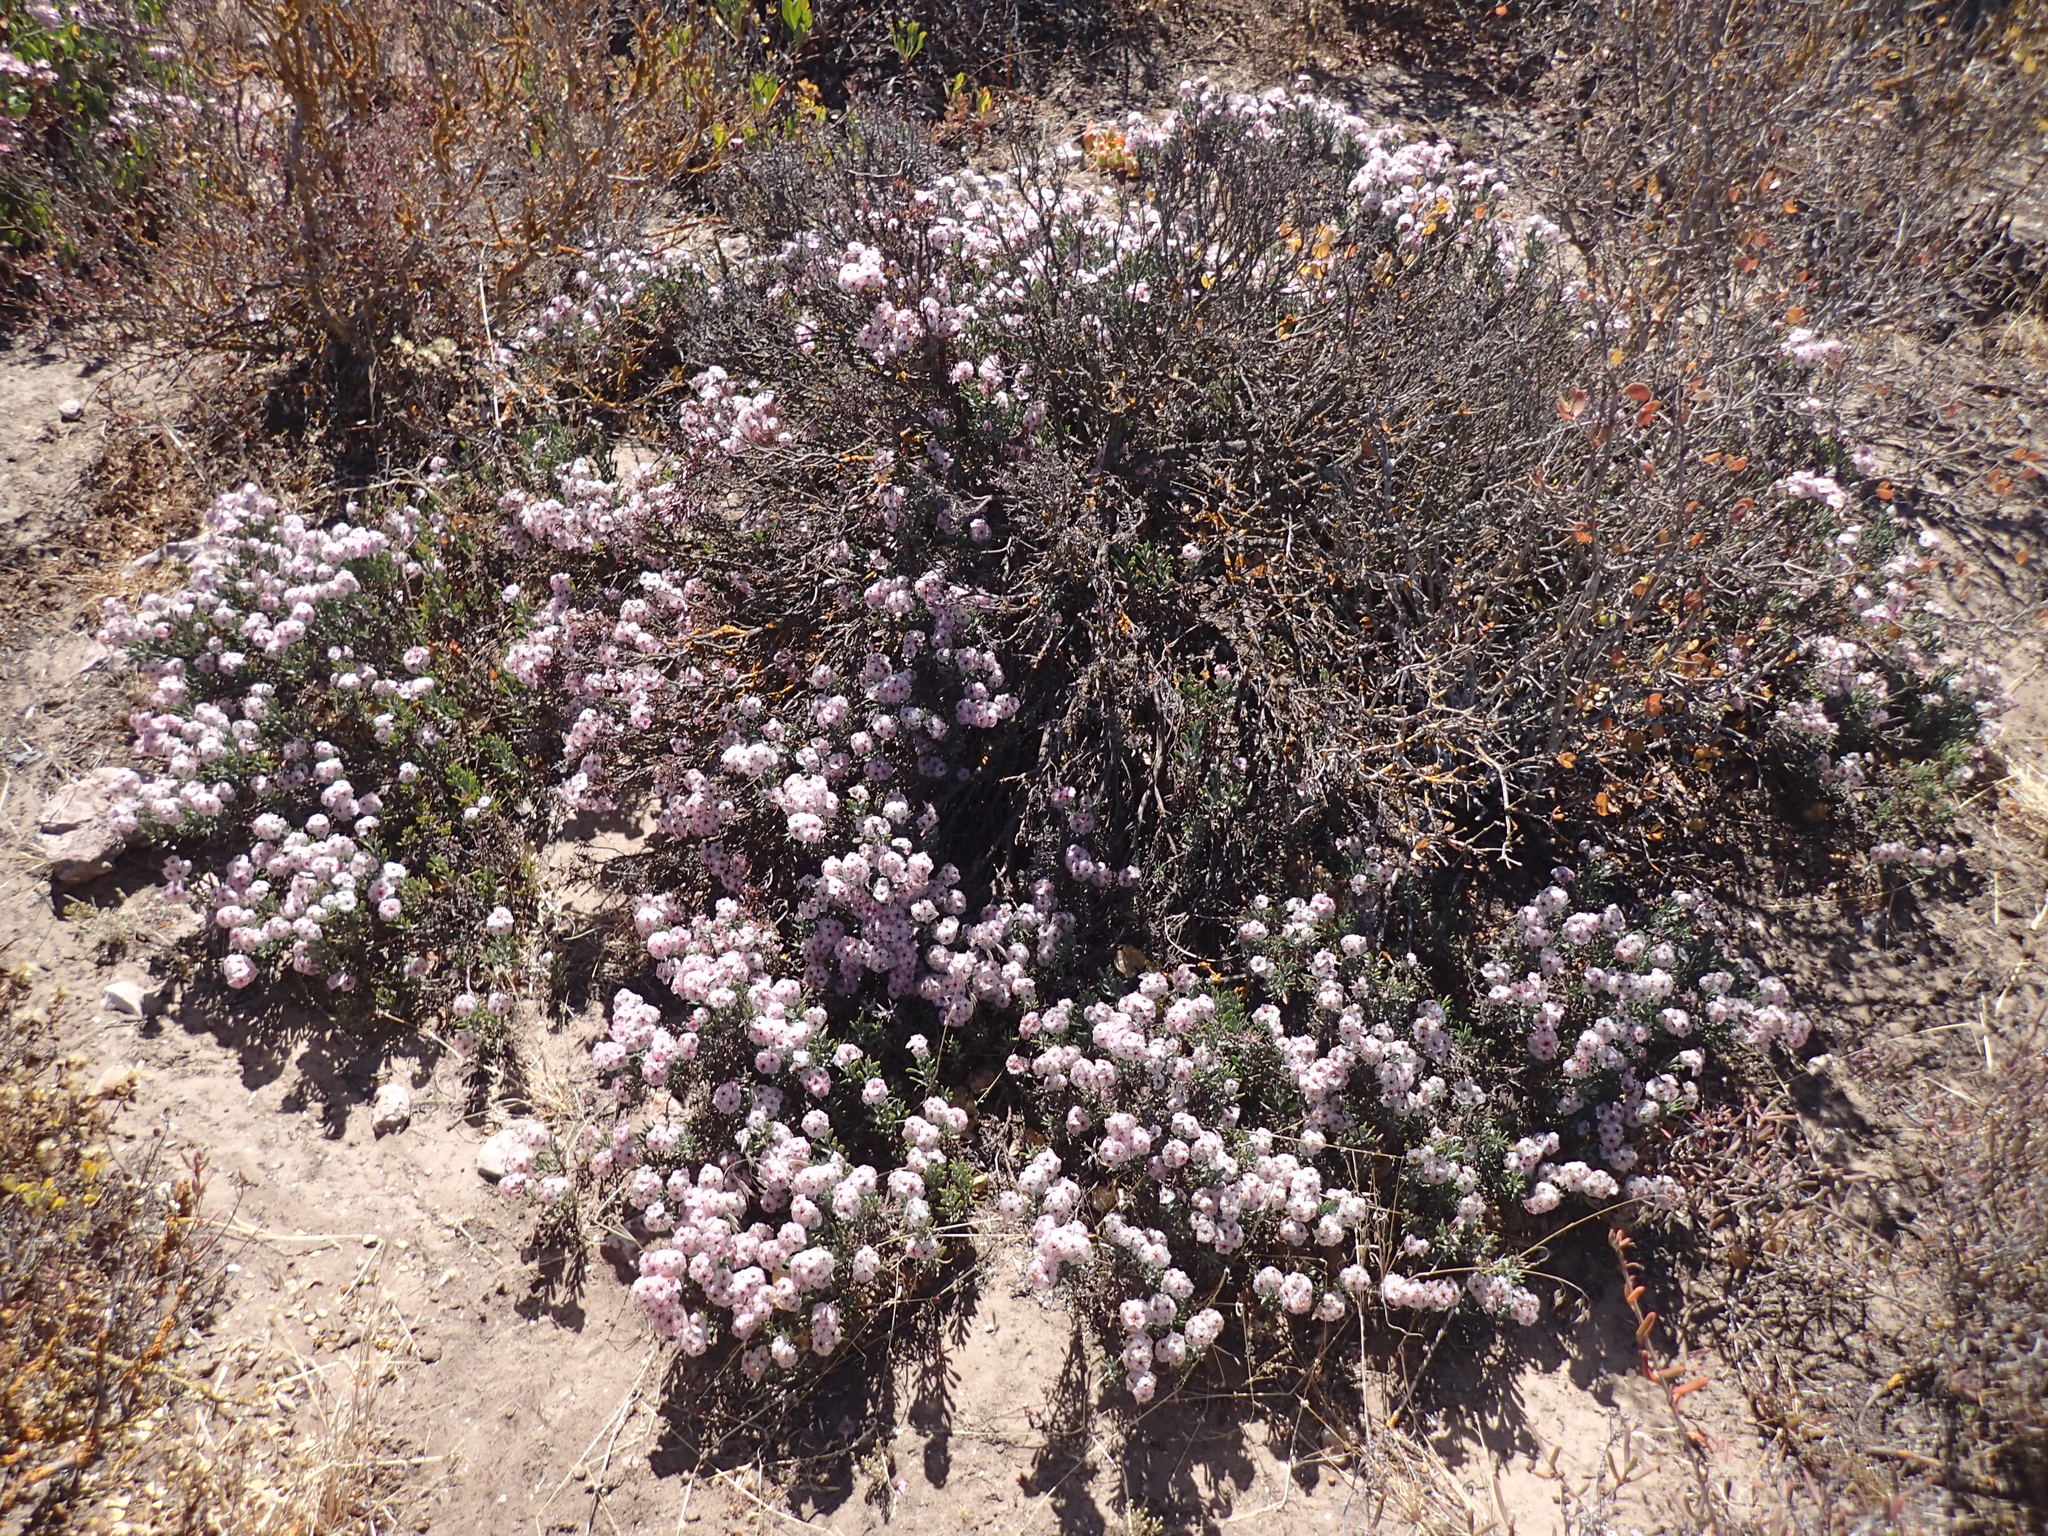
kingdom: Plantae
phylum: Tracheophyta
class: Magnoliopsida
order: Caryophyllales
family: Plumbaginaceae
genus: Limonium
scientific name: Limonium capense
